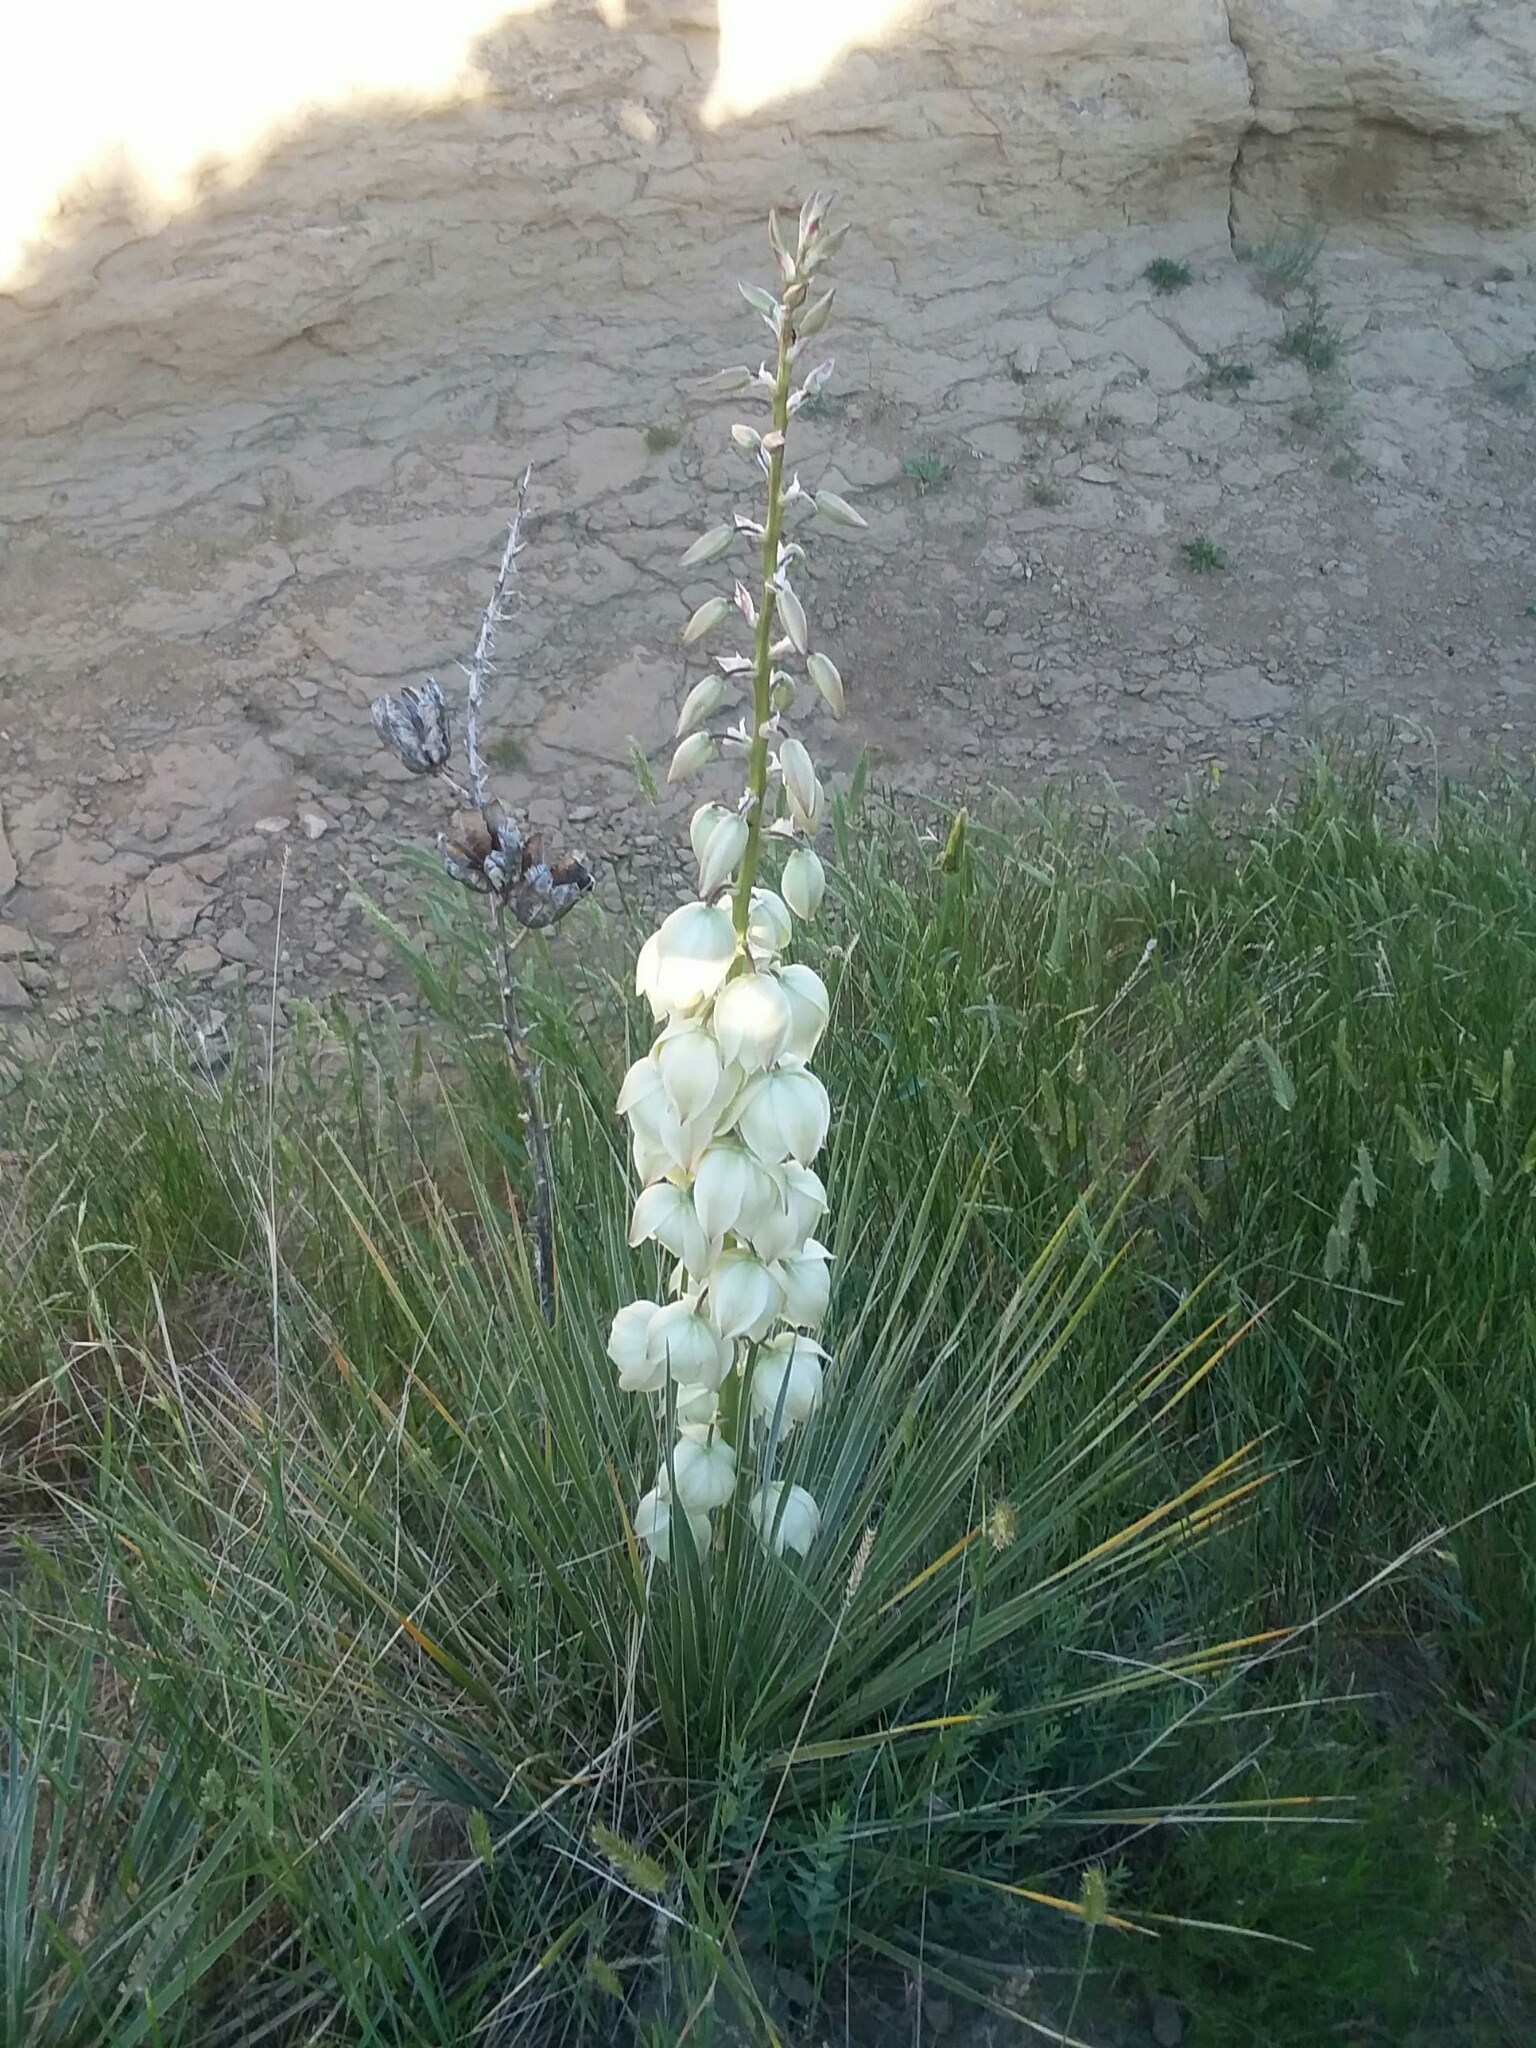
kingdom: Plantae
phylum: Tracheophyta
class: Liliopsida
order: Asparagales
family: Asparagaceae
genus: Yucca
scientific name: Yucca glauca
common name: Great plains yucca
